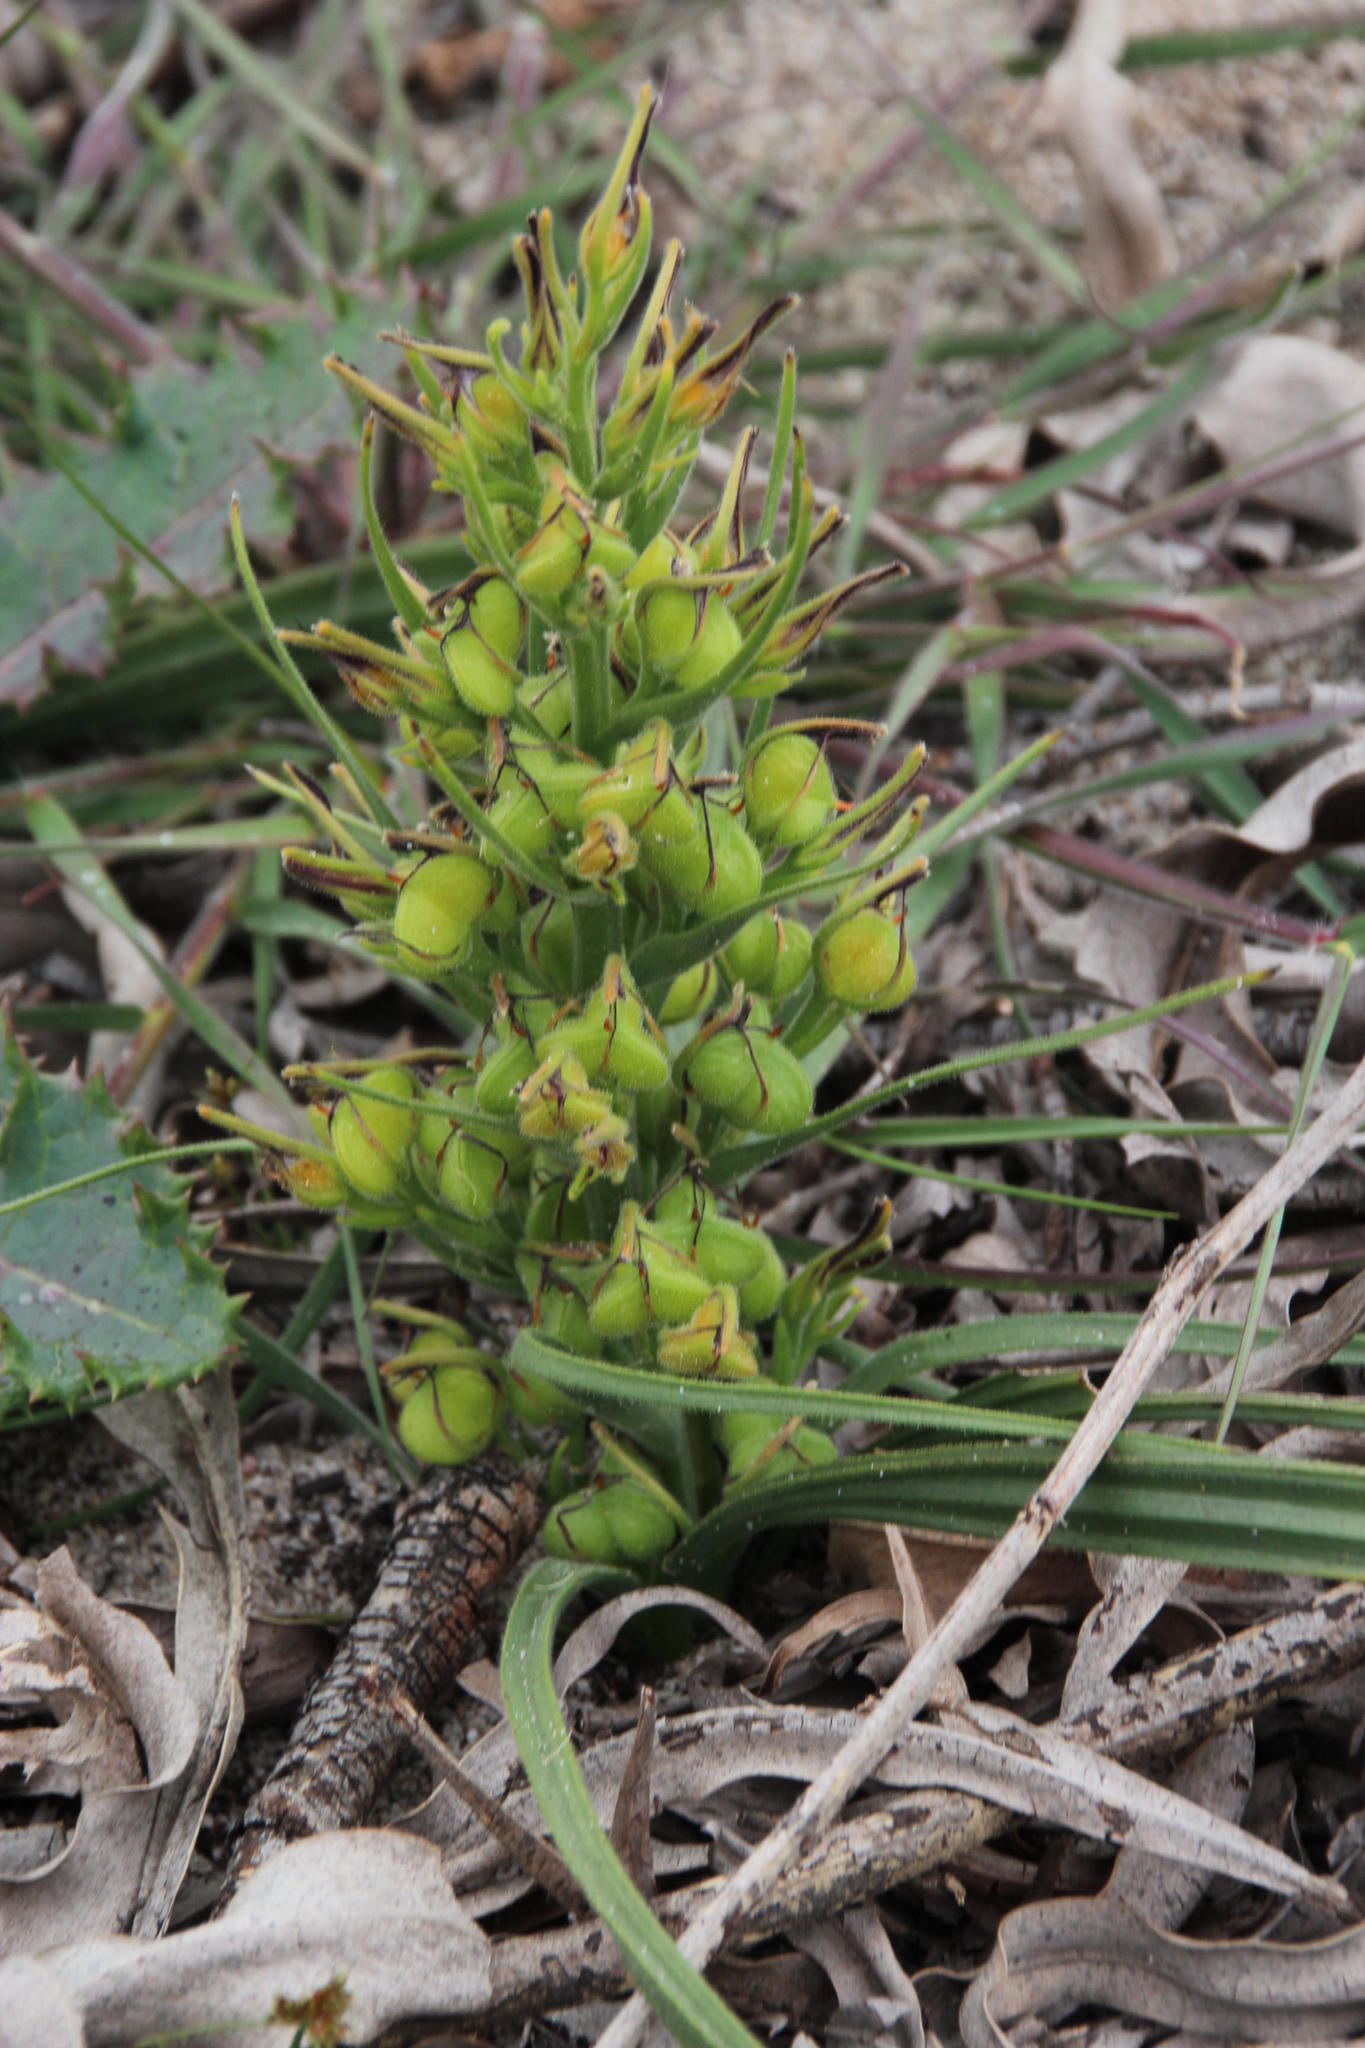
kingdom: Plantae
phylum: Tracheophyta
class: Liliopsida
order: Commelinales
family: Haemodoraceae
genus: Wachendorfia
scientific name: Wachendorfia multiflora
